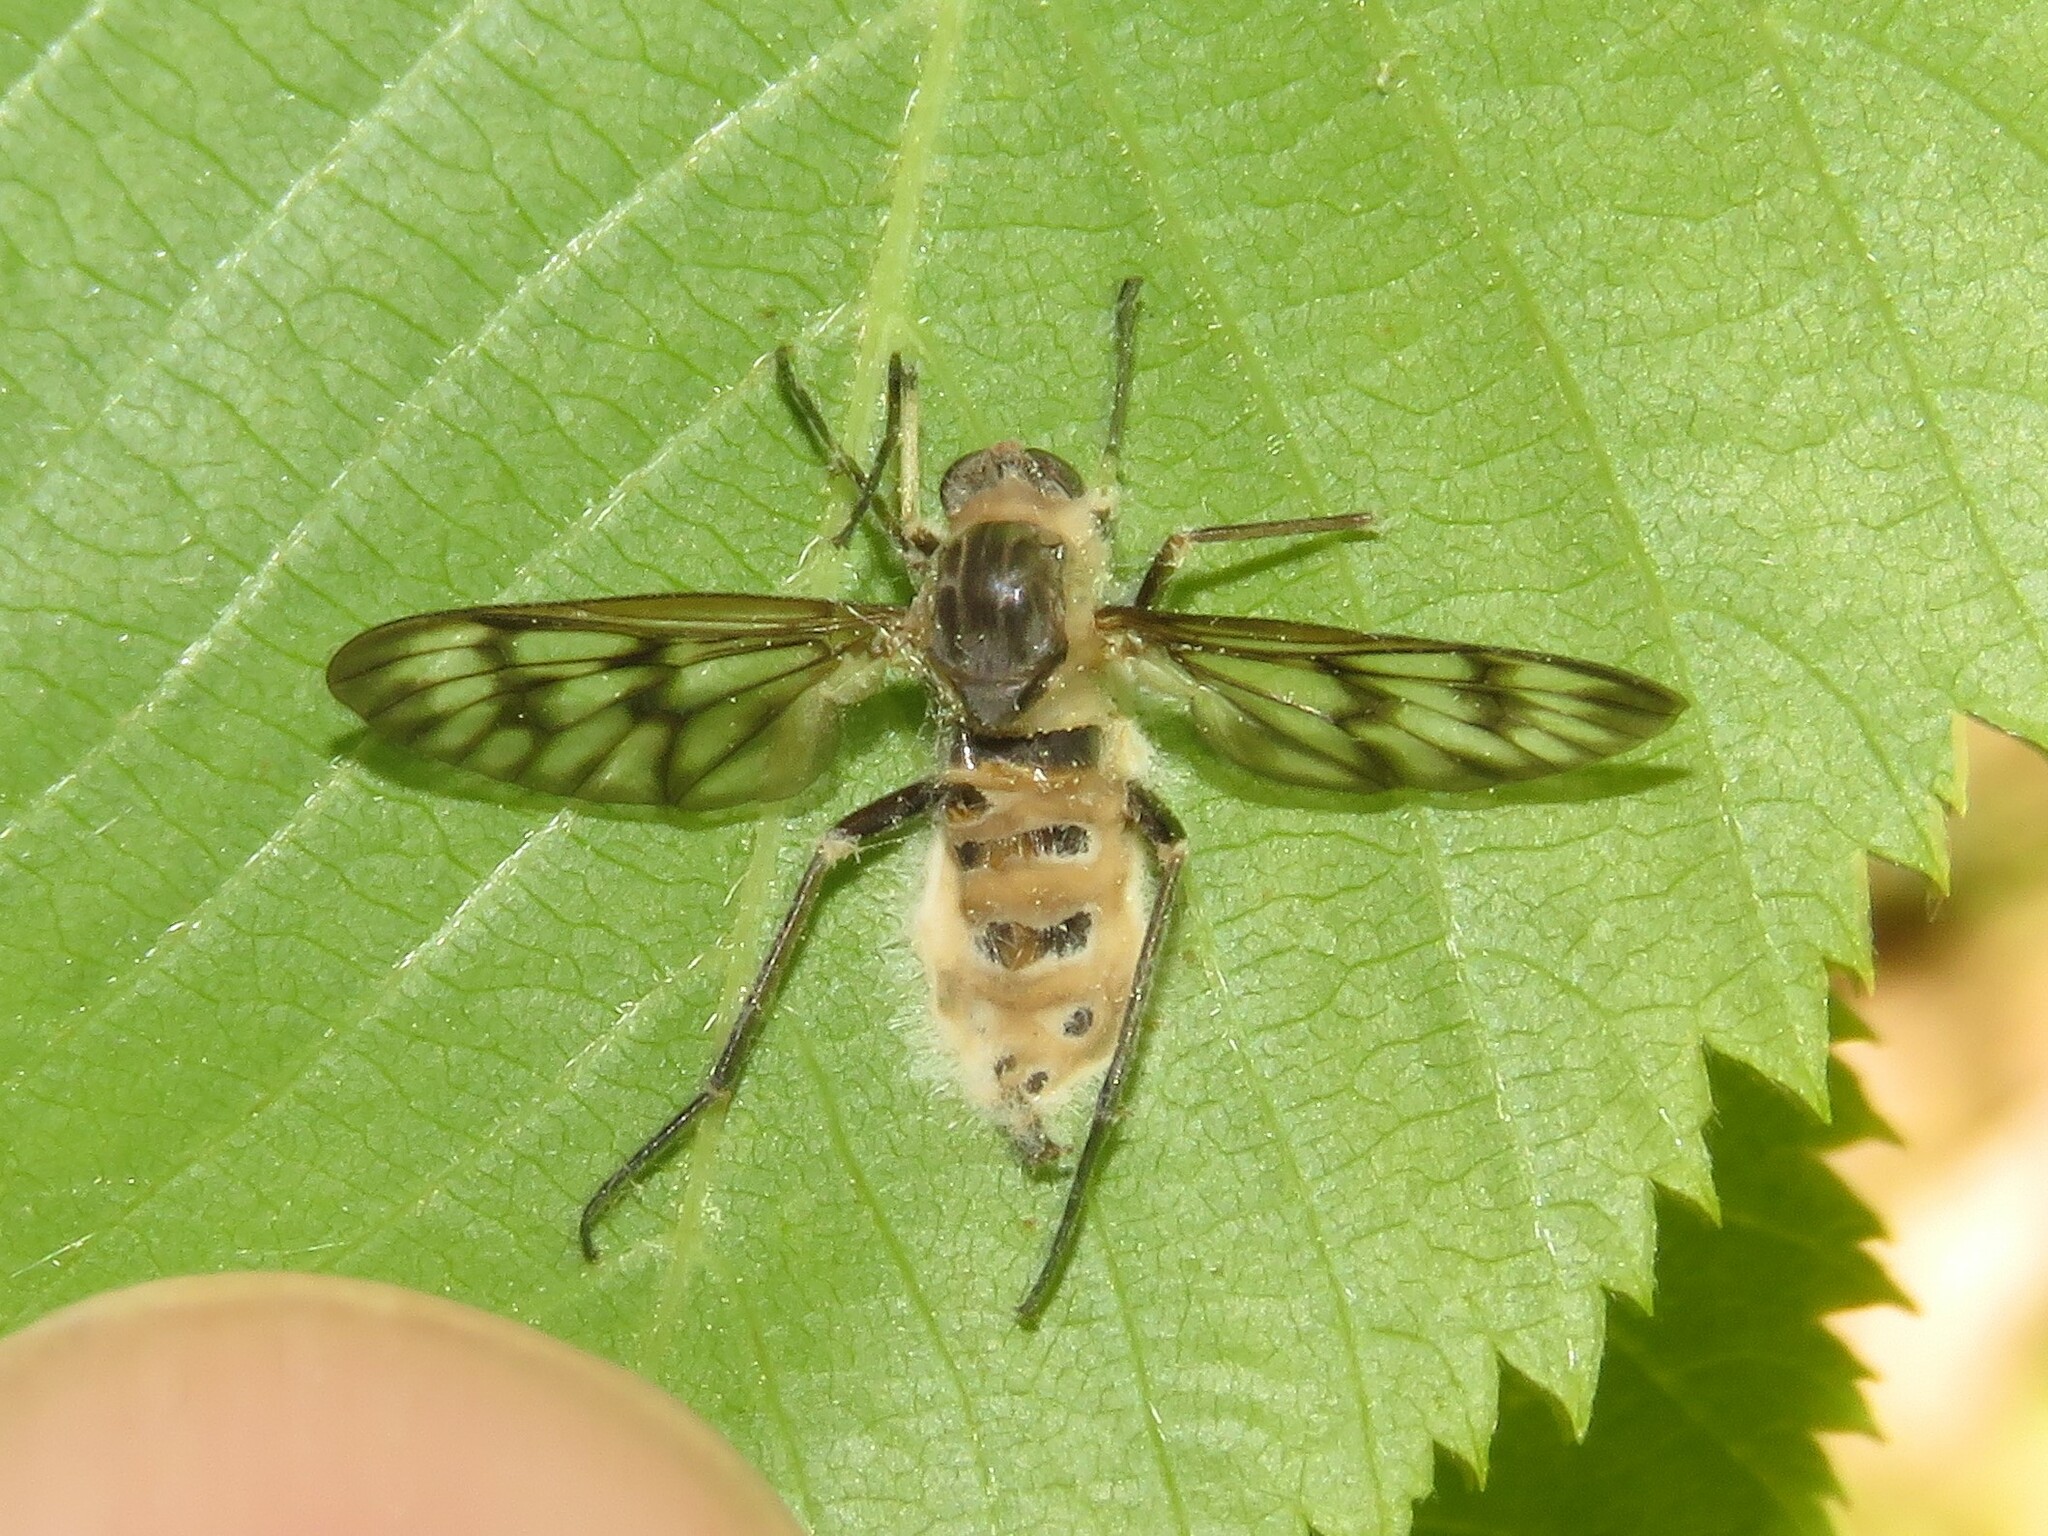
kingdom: Animalia
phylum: Arthropoda
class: Insecta
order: Diptera
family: Rhagionidae
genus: Rhagio
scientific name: Rhagio mystaceus
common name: Common snipe fly
